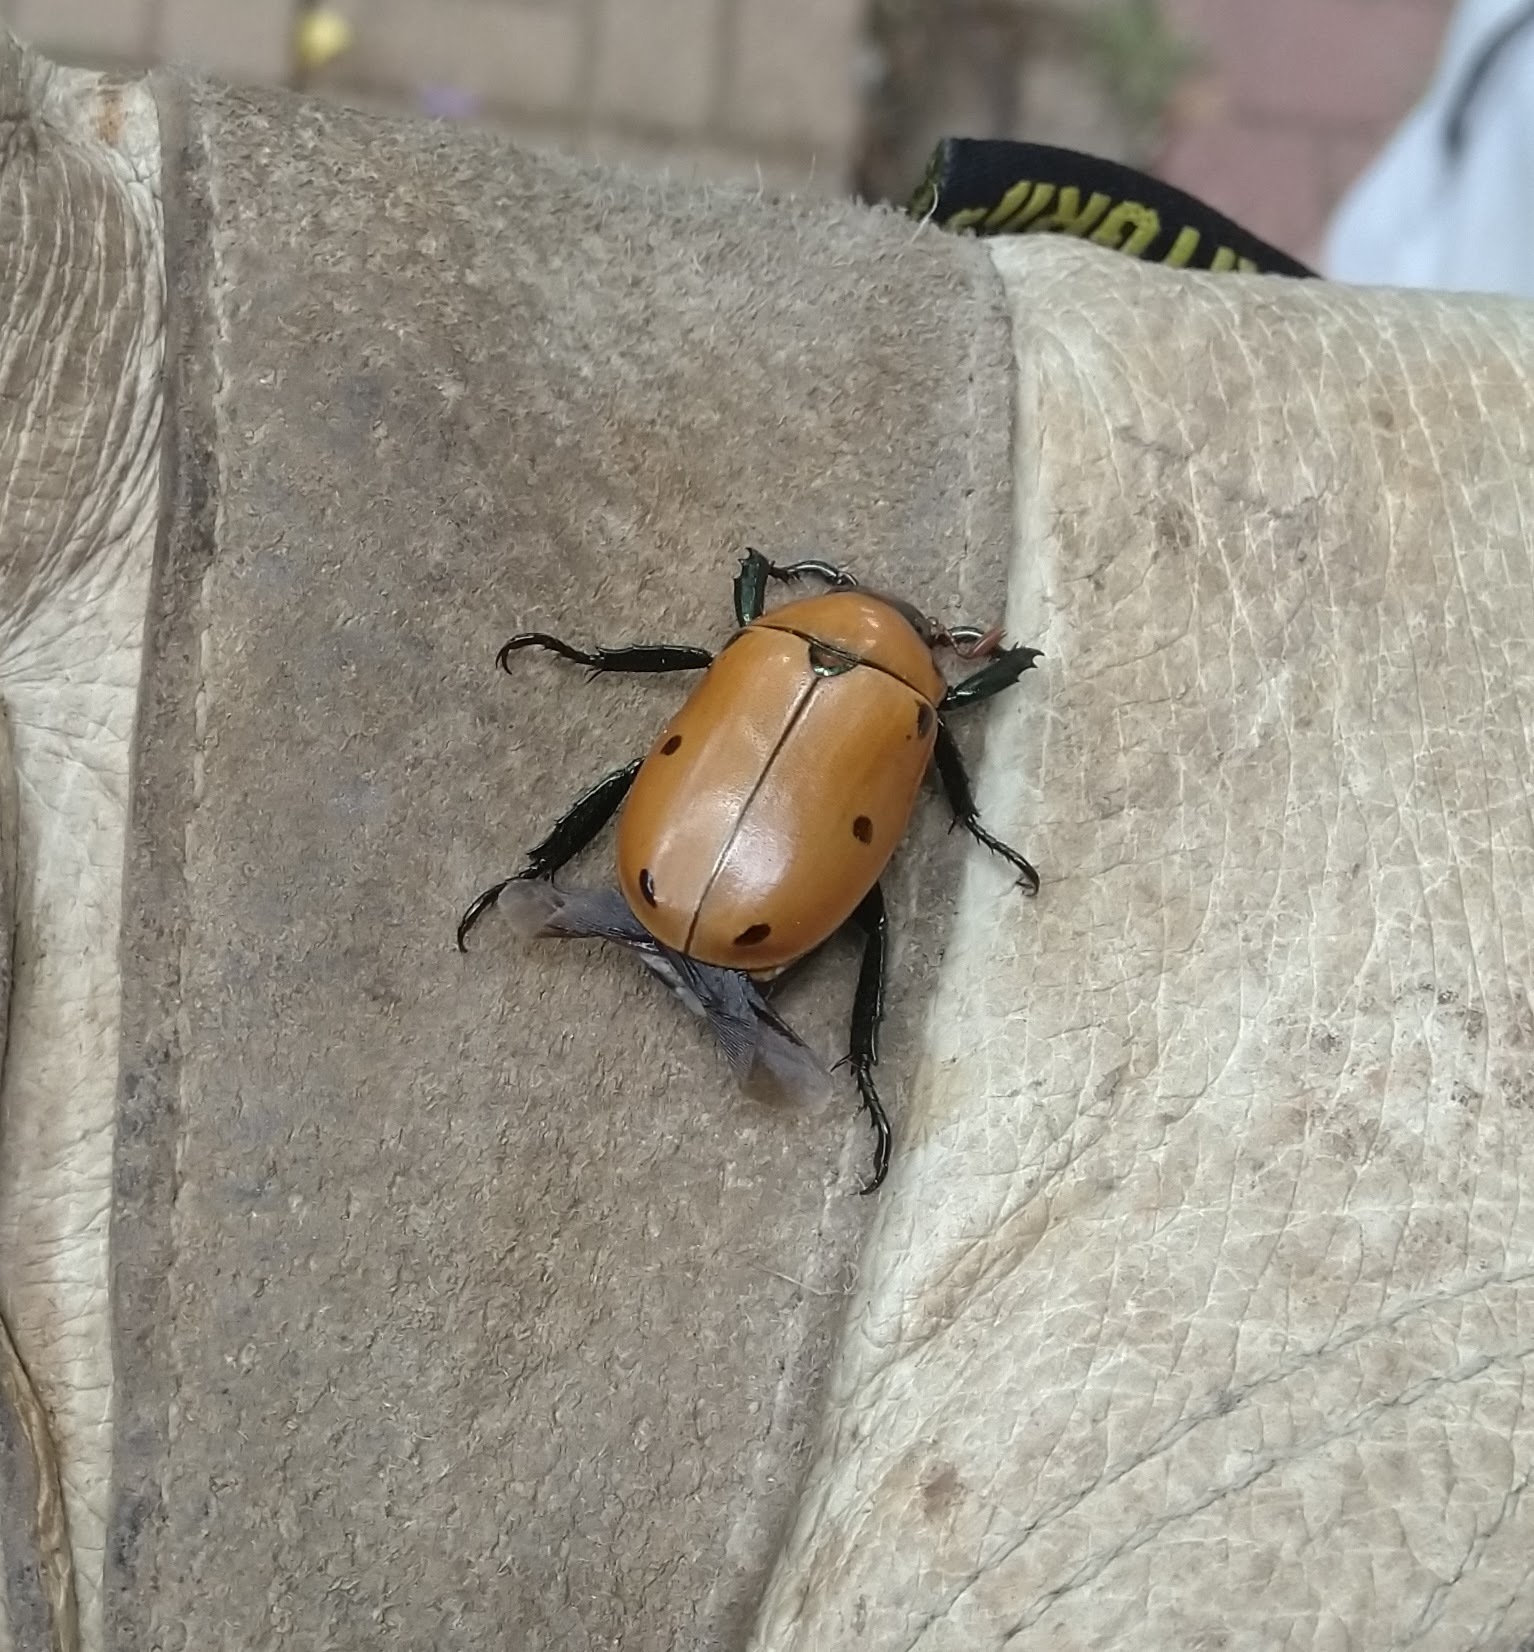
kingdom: Animalia
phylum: Arthropoda
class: Insecta
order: Coleoptera
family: Scarabaeidae
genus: Pelidnota
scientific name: Pelidnota punctata
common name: Grapevine beetle
